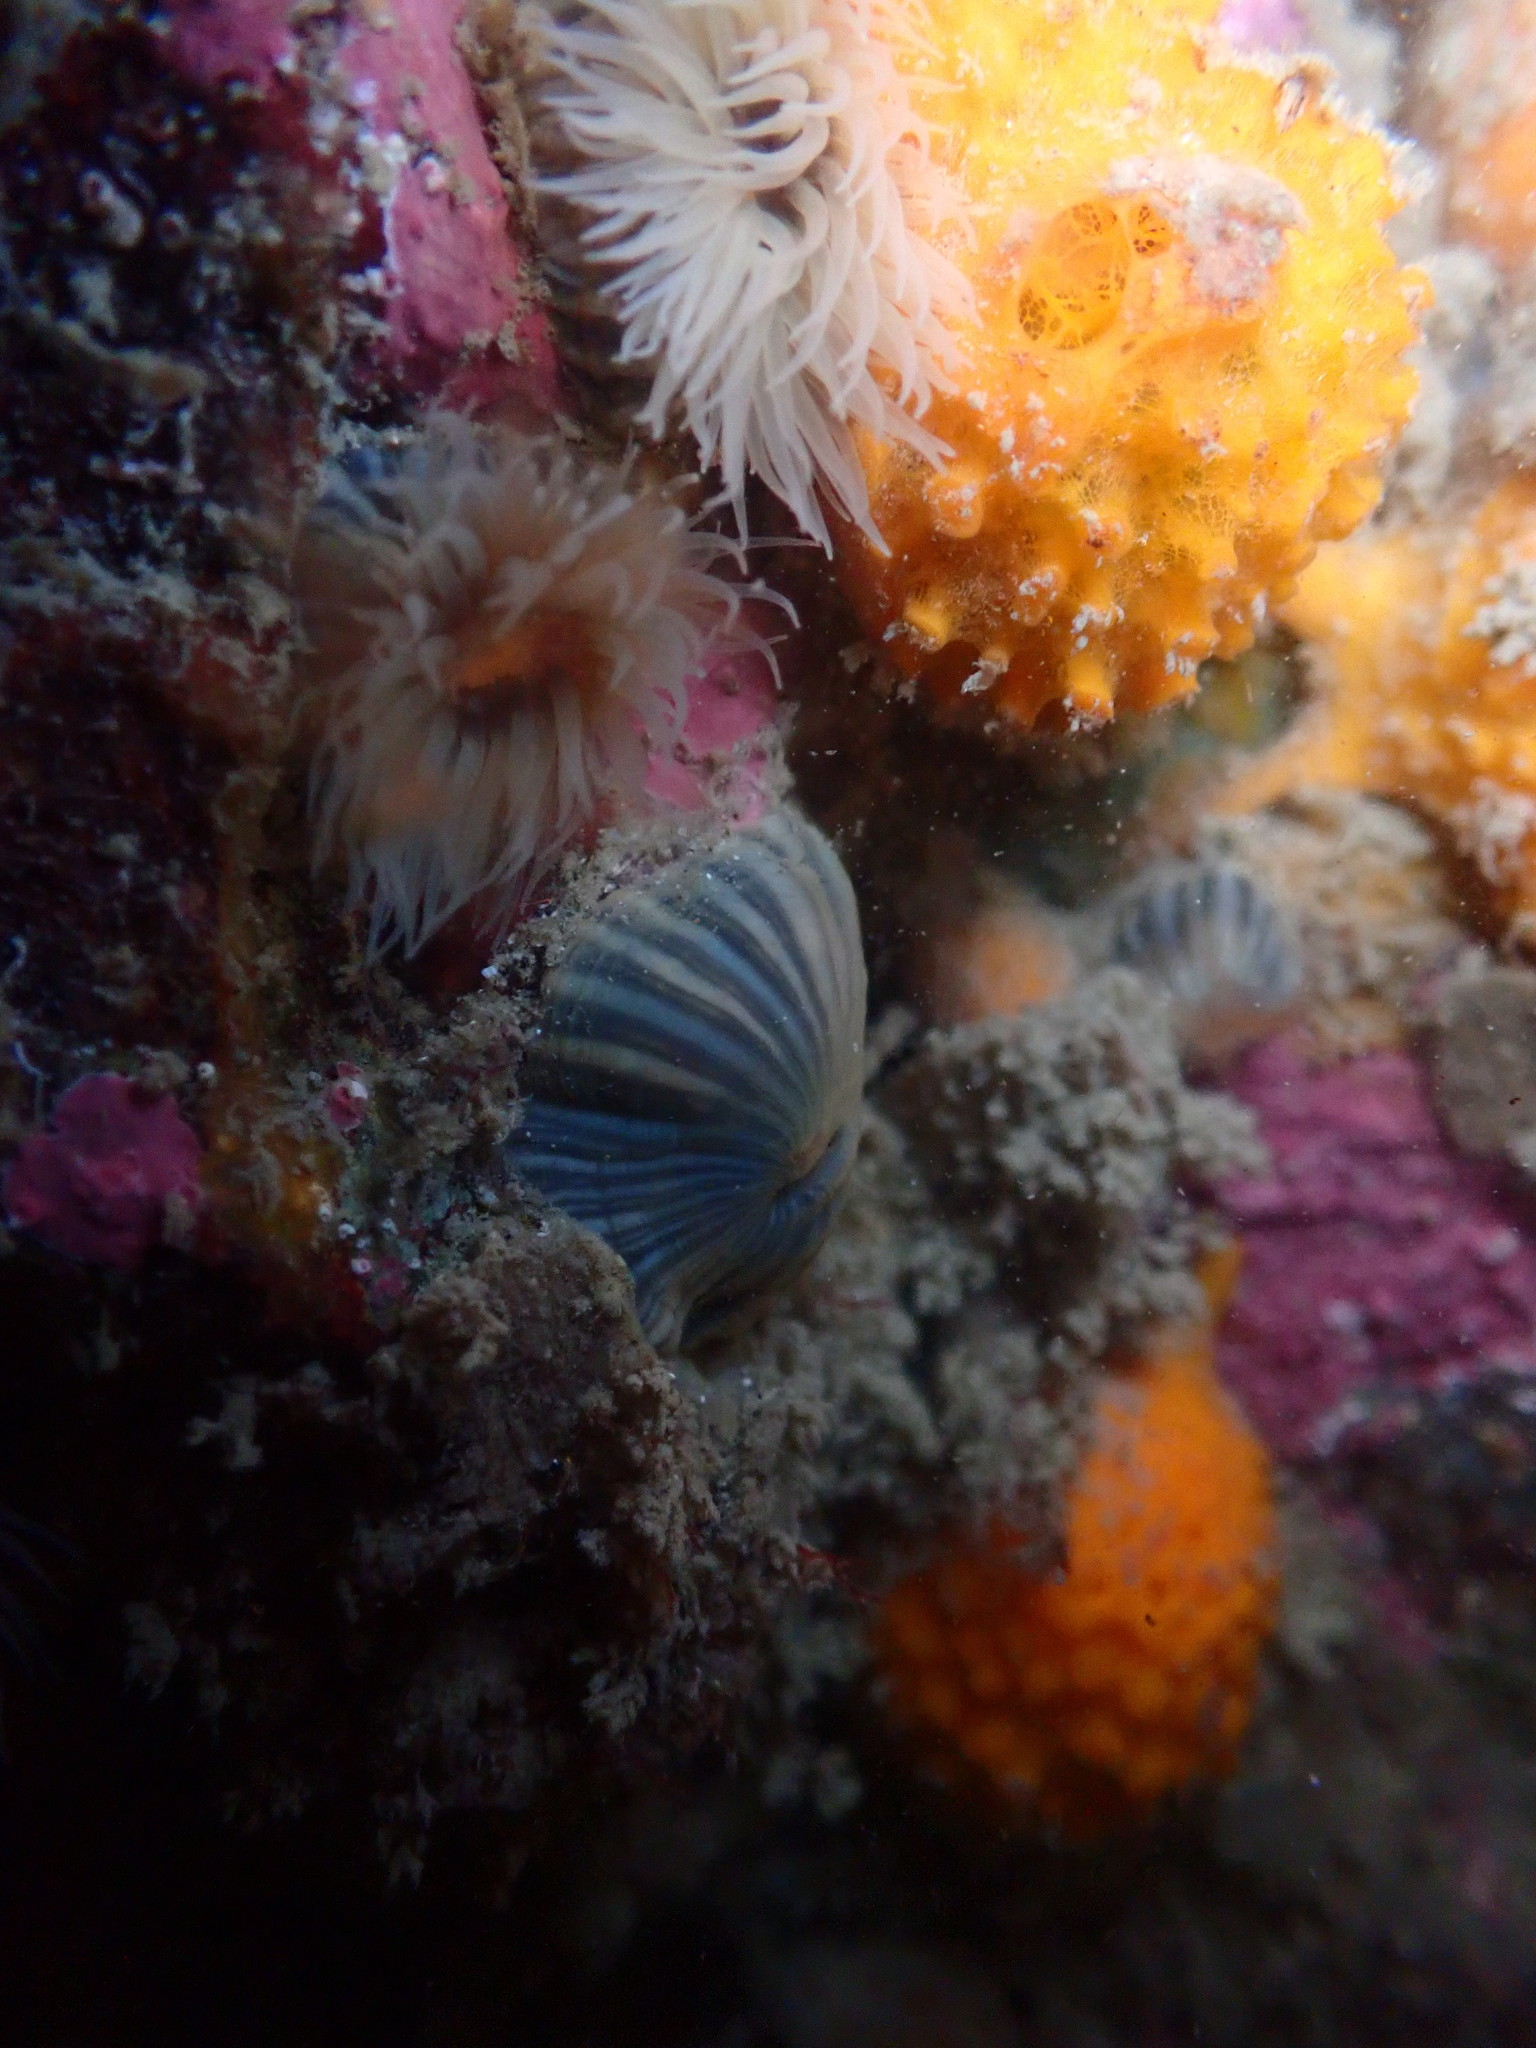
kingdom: Animalia
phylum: Cnidaria
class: Anthozoa
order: Actiniaria
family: Diadumenidae
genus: Diadumene
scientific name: Diadumene neozelanica
